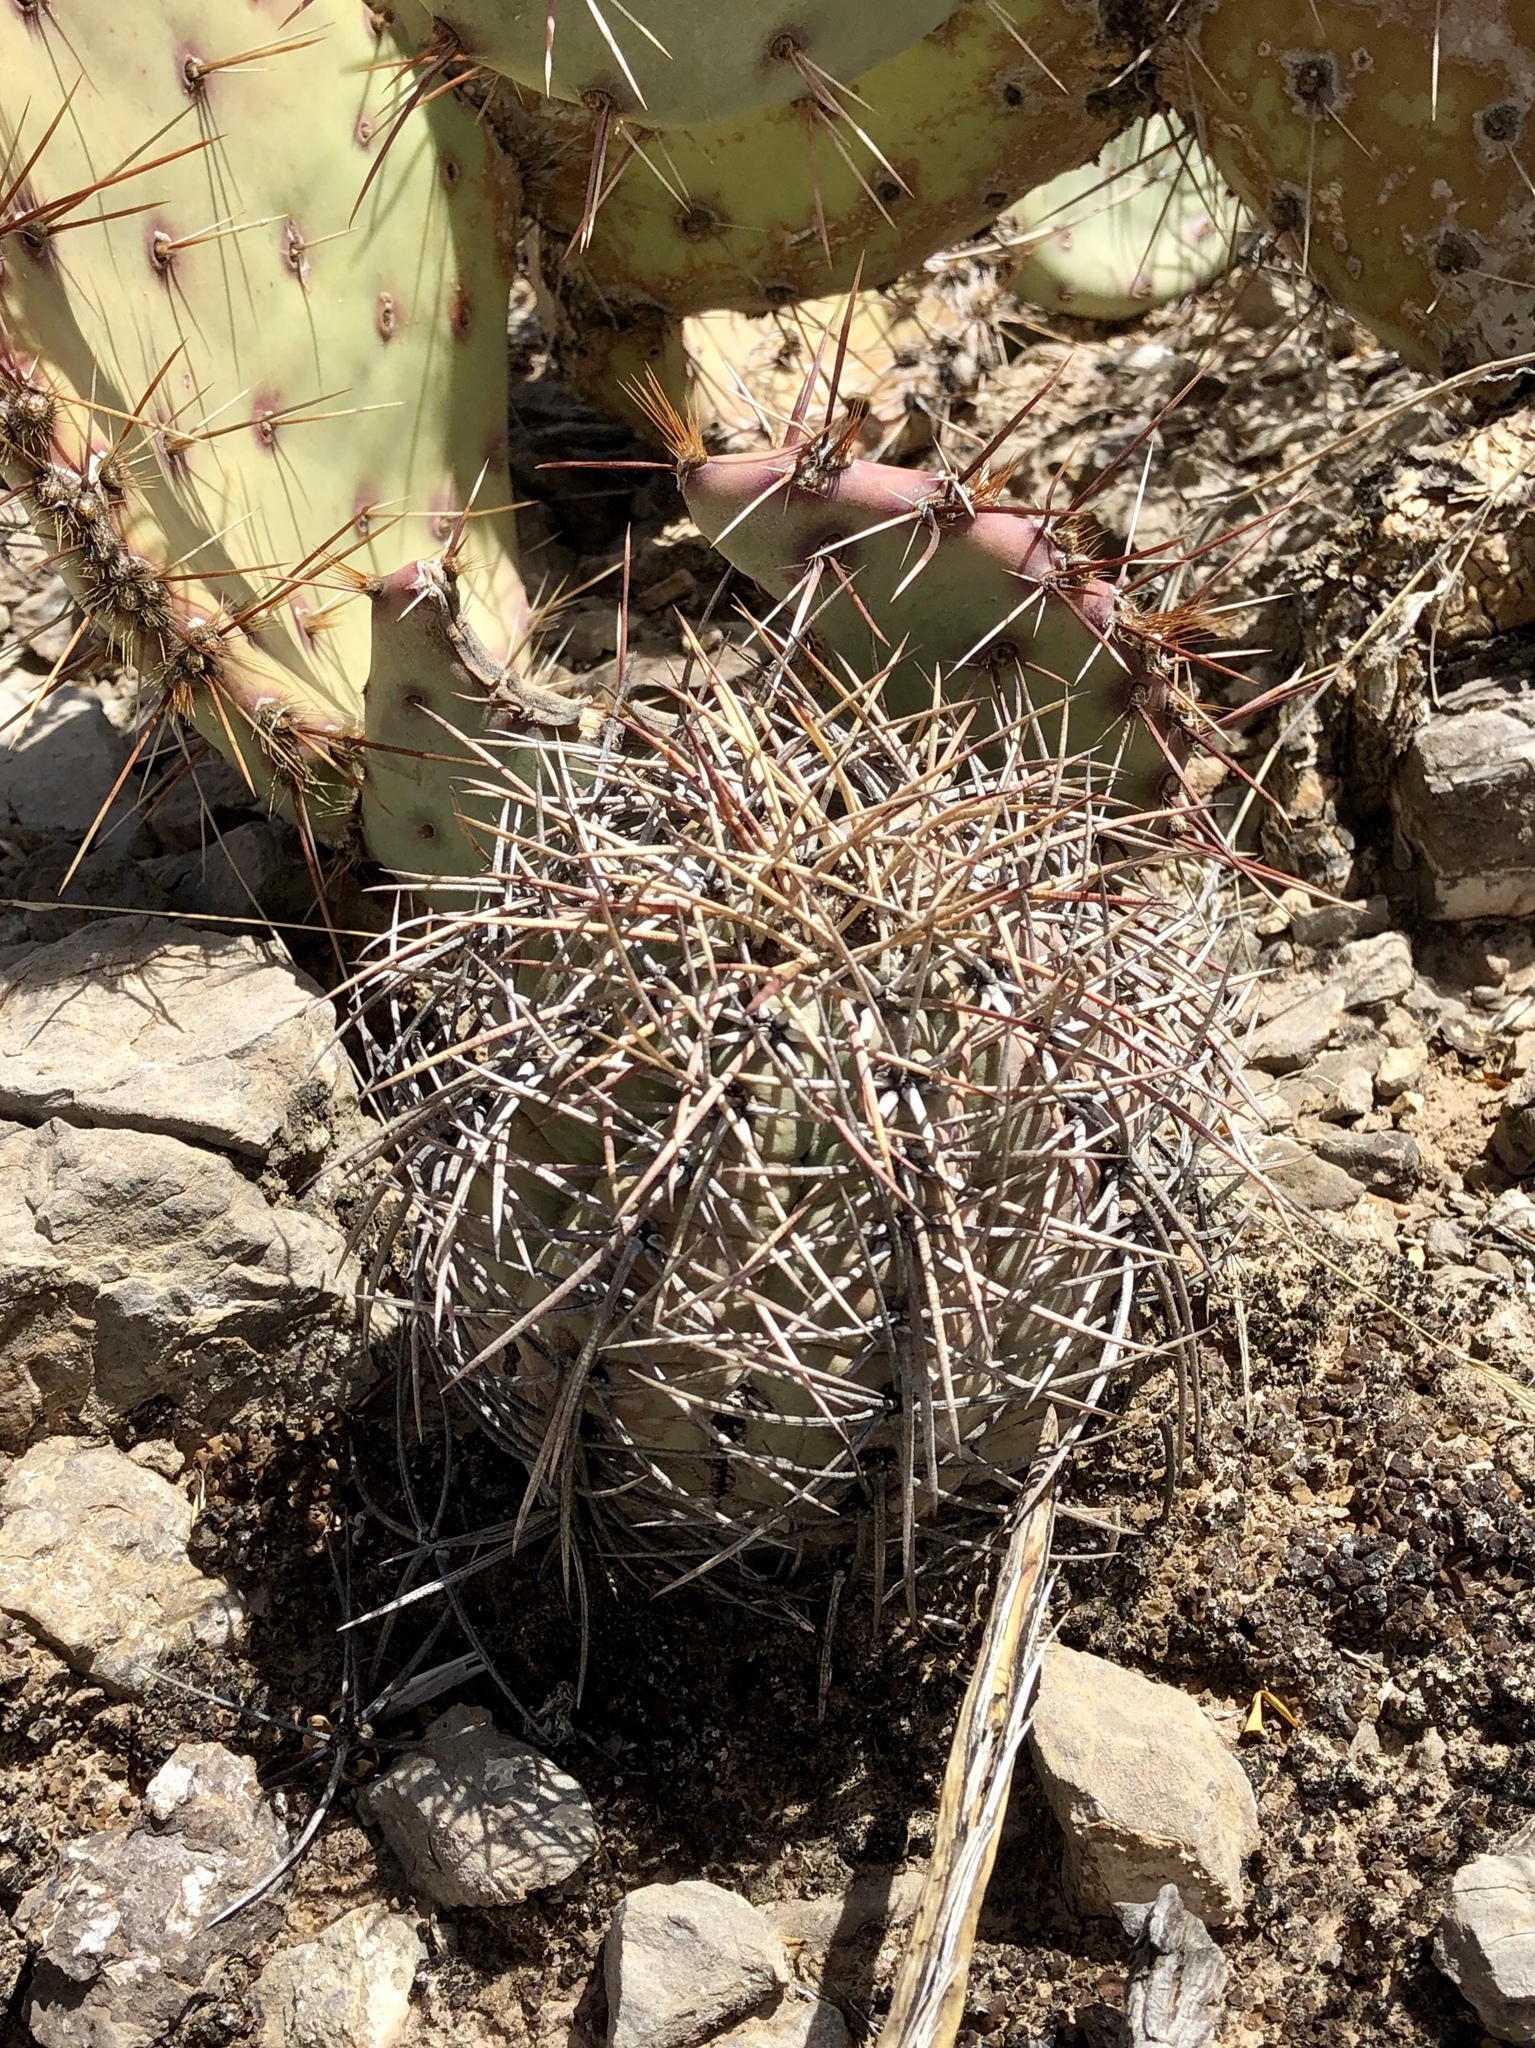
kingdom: Plantae
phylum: Tracheophyta
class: Magnoliopsida
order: Caryophyllales
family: Cactaceae
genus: Echinocactus
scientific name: Echinocactus horizonthalonius
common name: Devilshead
